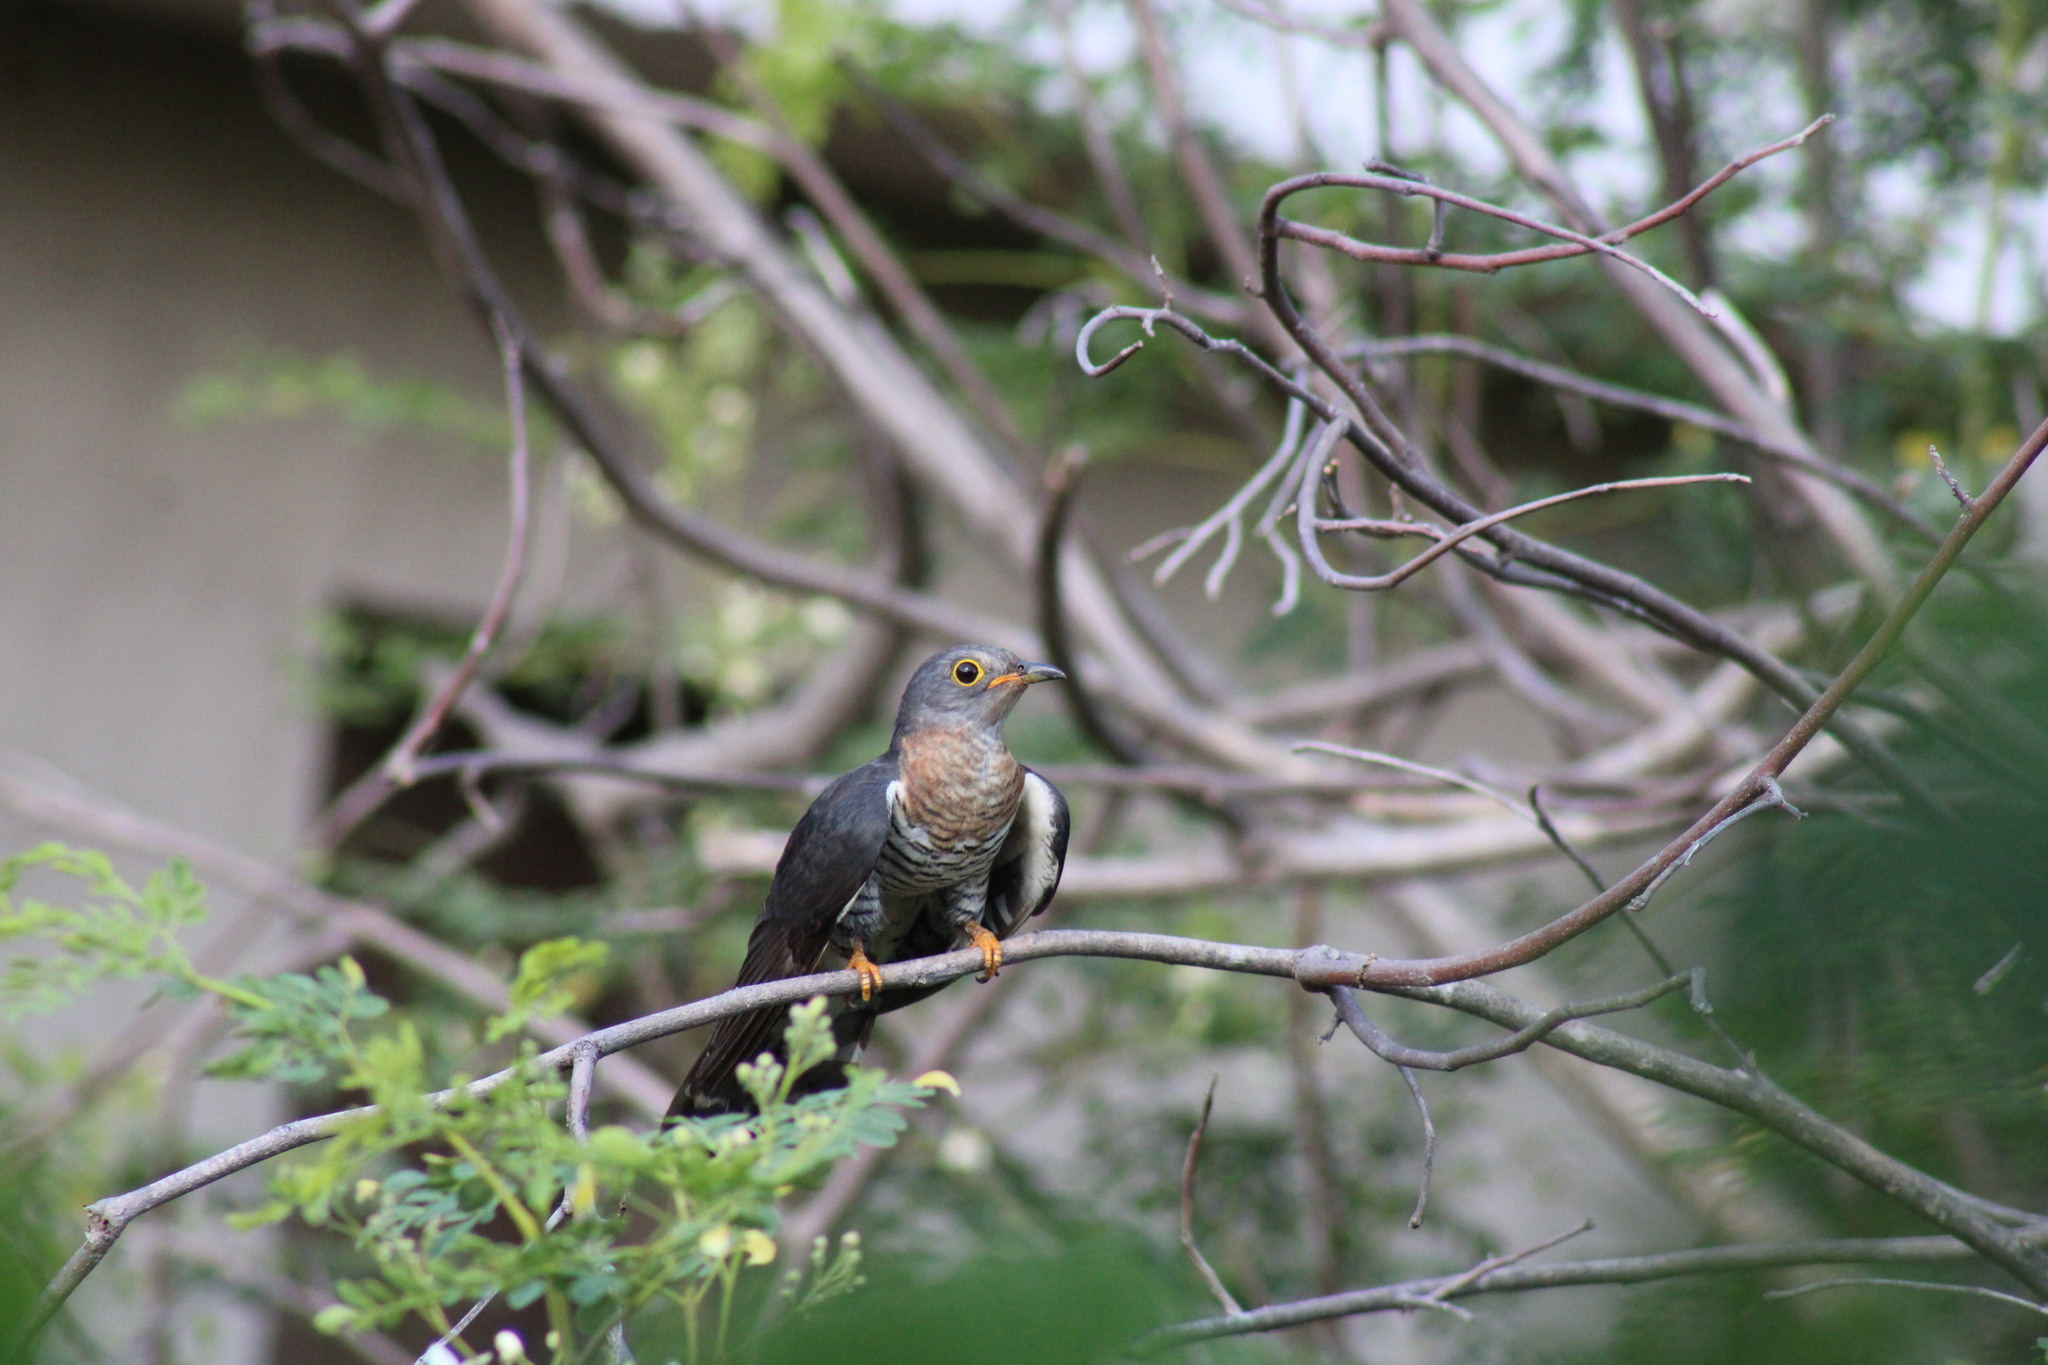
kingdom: Animalia
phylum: Chordata
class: Aves
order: Cuculiformes
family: Cuculidae
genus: Cuculus
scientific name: Cuculus solitarius
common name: Red-chested cuckoo
